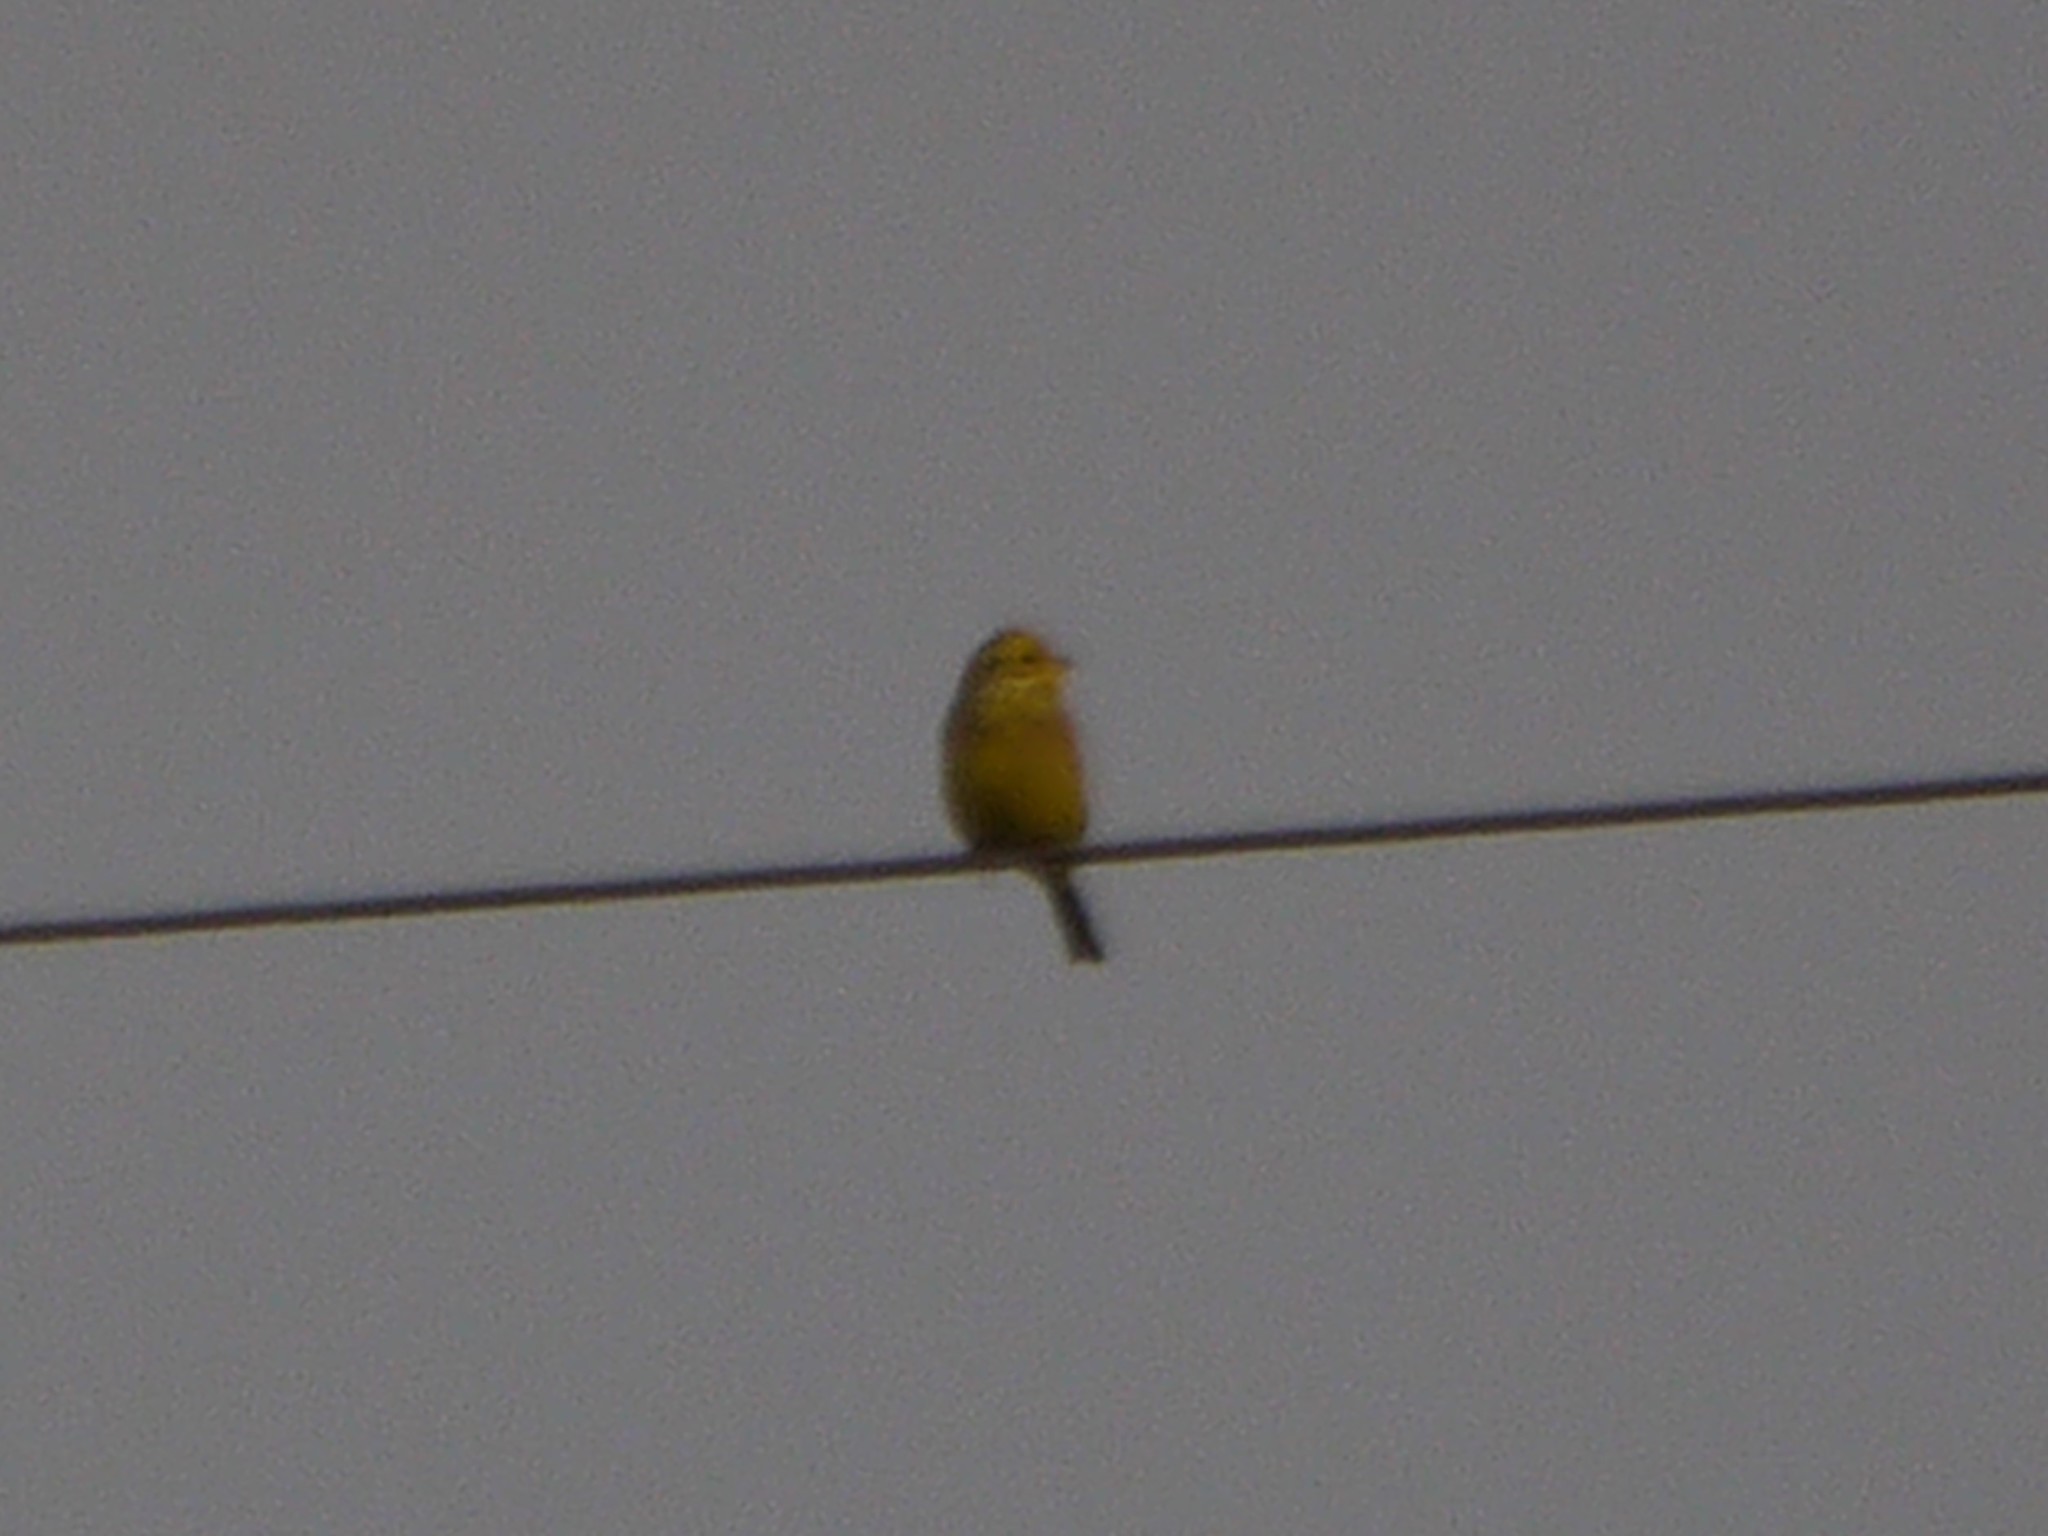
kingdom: Animalia
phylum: Chordata
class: Aves
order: Passeriformes
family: Emberizidae
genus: Emberiza
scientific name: Emberiza citrinella
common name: Yellowhammer
